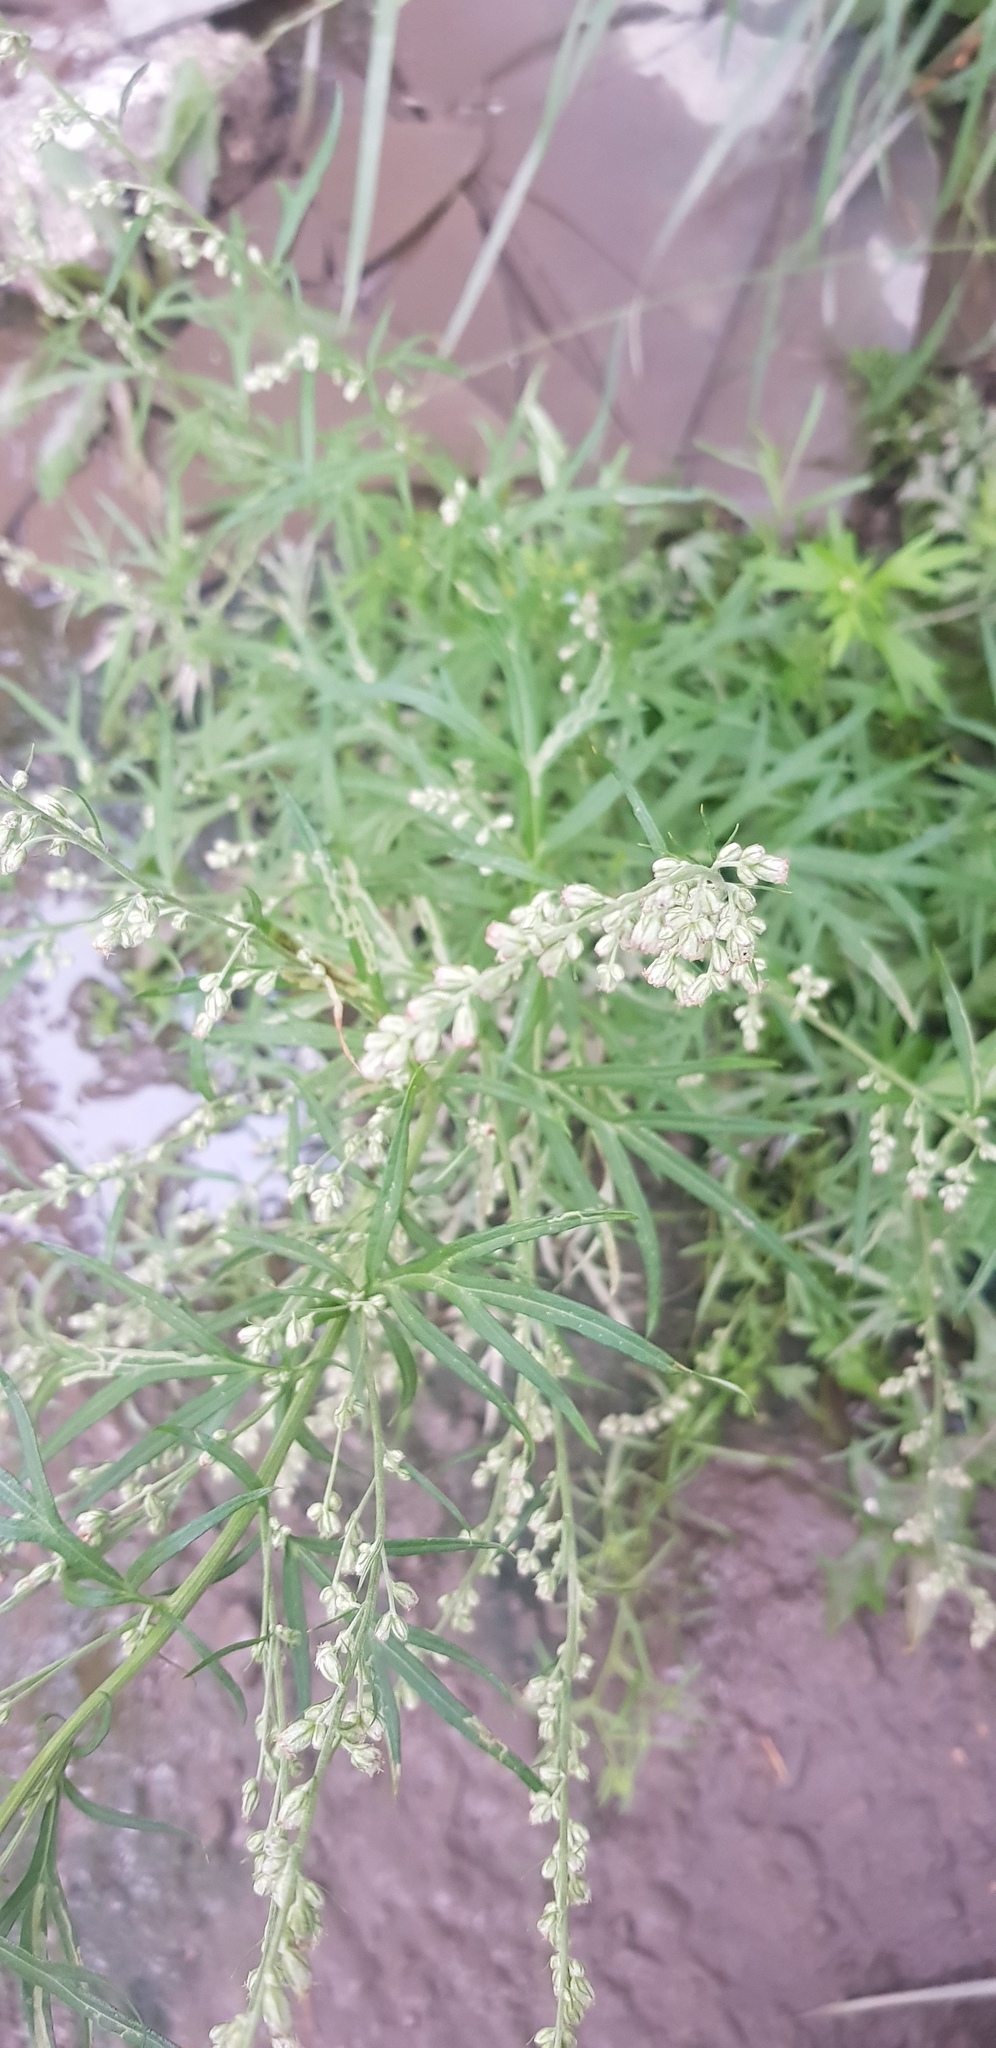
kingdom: Plantae
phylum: Tracheophyta
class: Magnoliopsida
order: Asterales
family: Asteraceae
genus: Artemisia
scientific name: Artemisia sieversiana
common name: Sieversian wormwood
